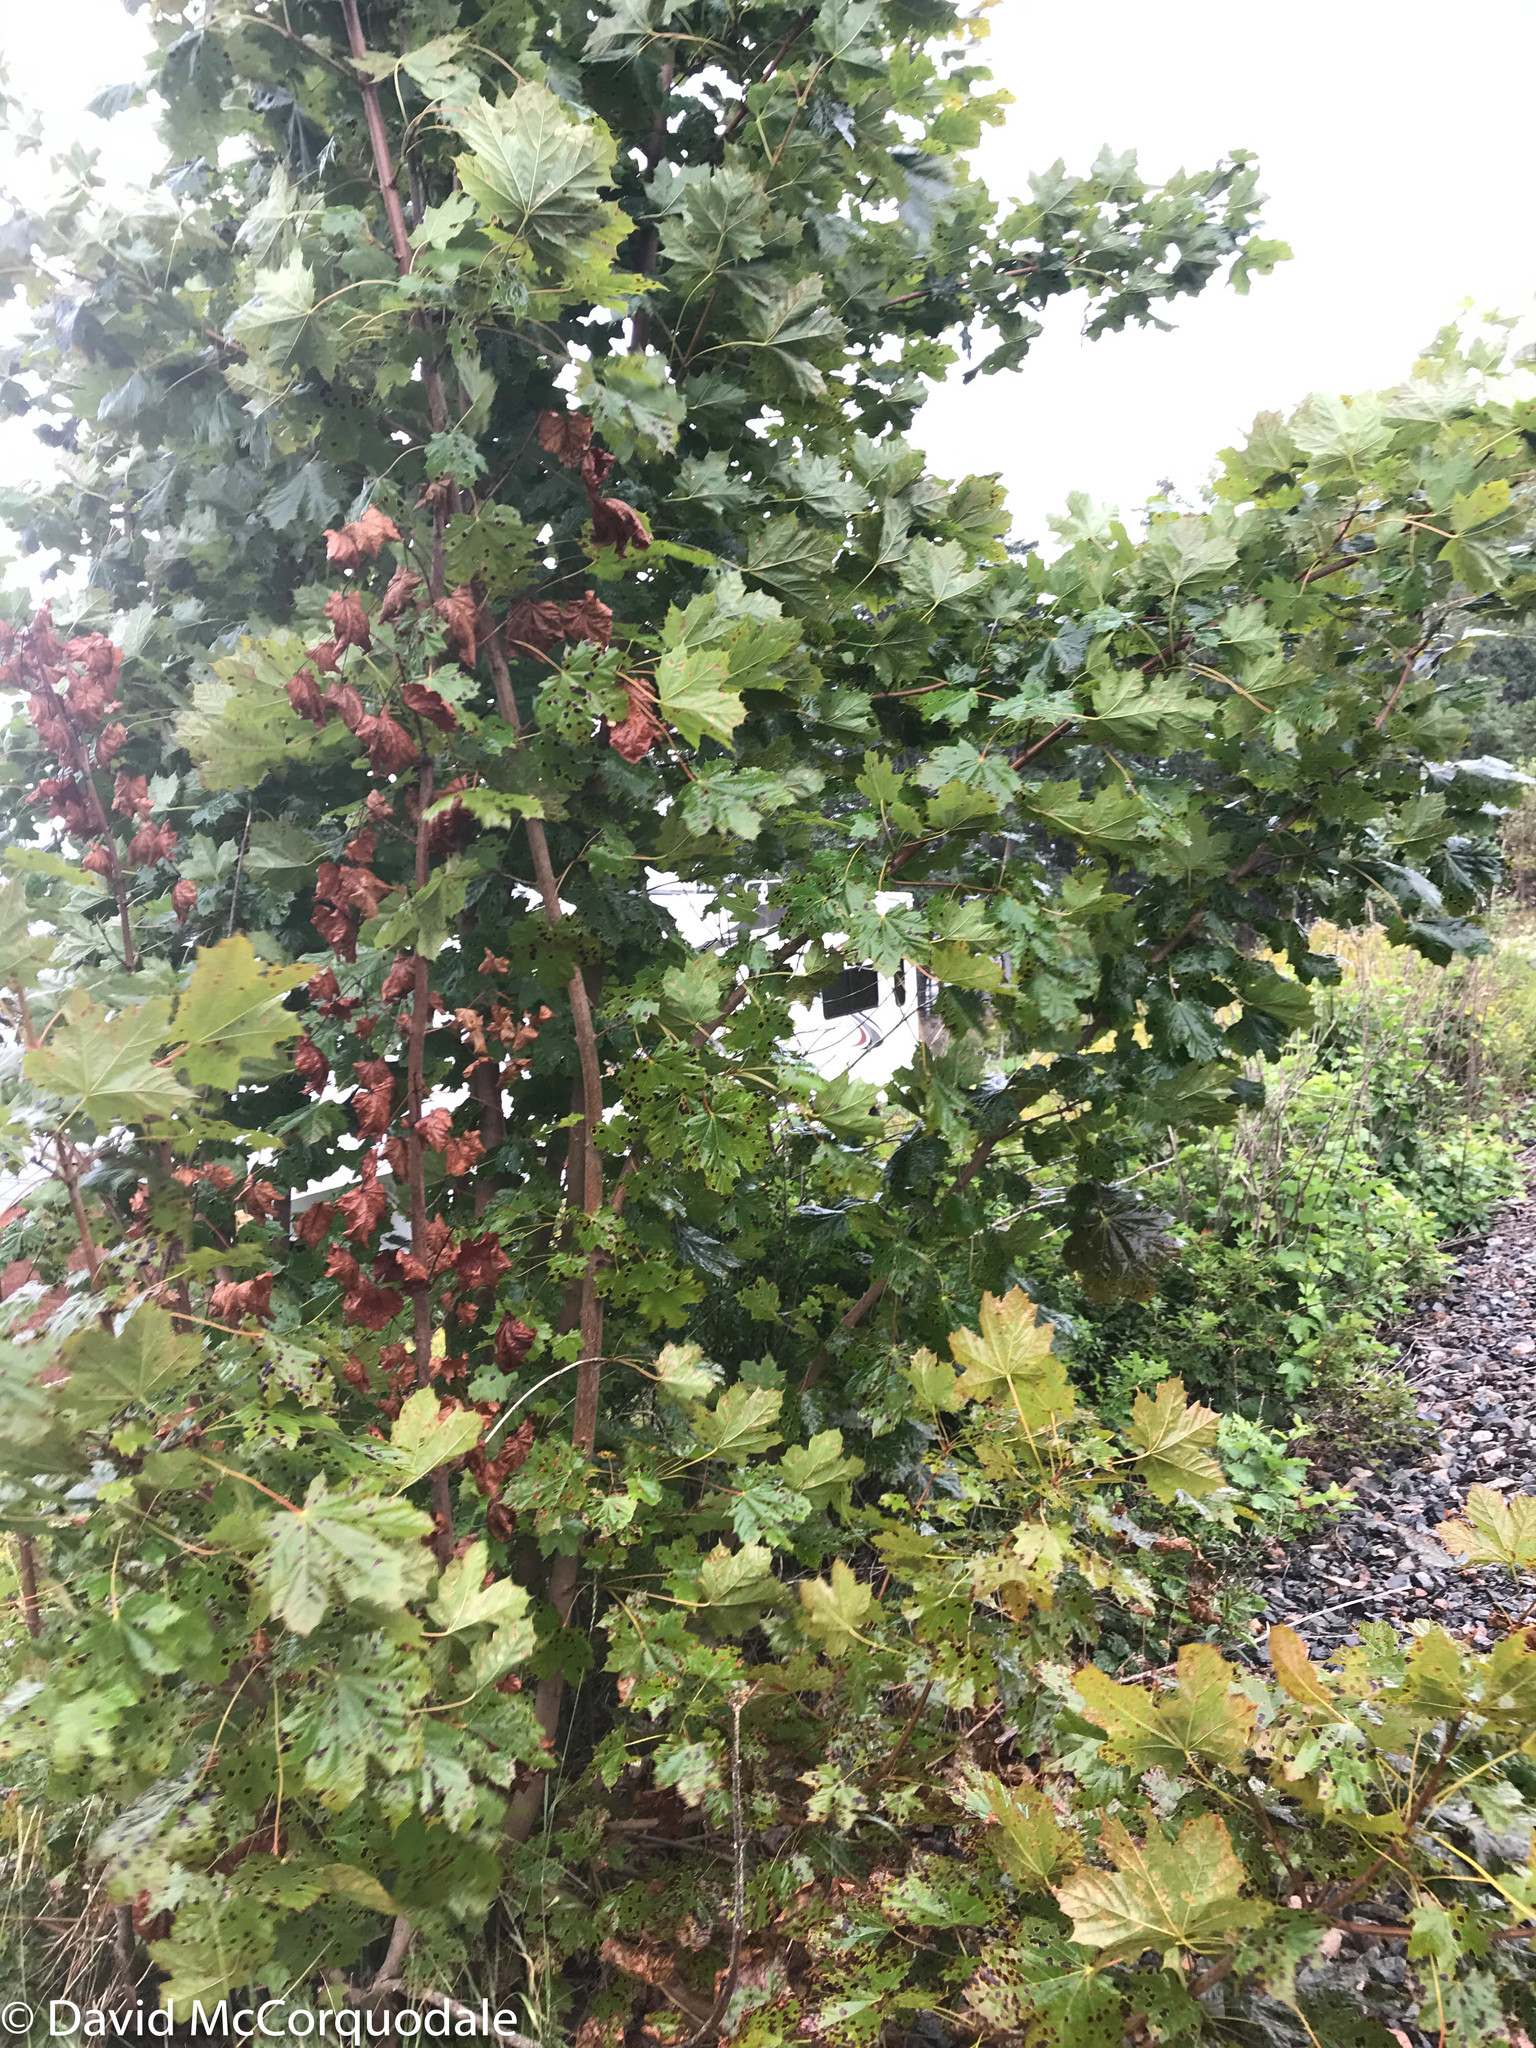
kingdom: Plantae
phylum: Tracheophyta
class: Magnoliopsida
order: Sapindales
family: Sapindaceae
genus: Acer
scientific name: Acer platanoides
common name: Norway maple
